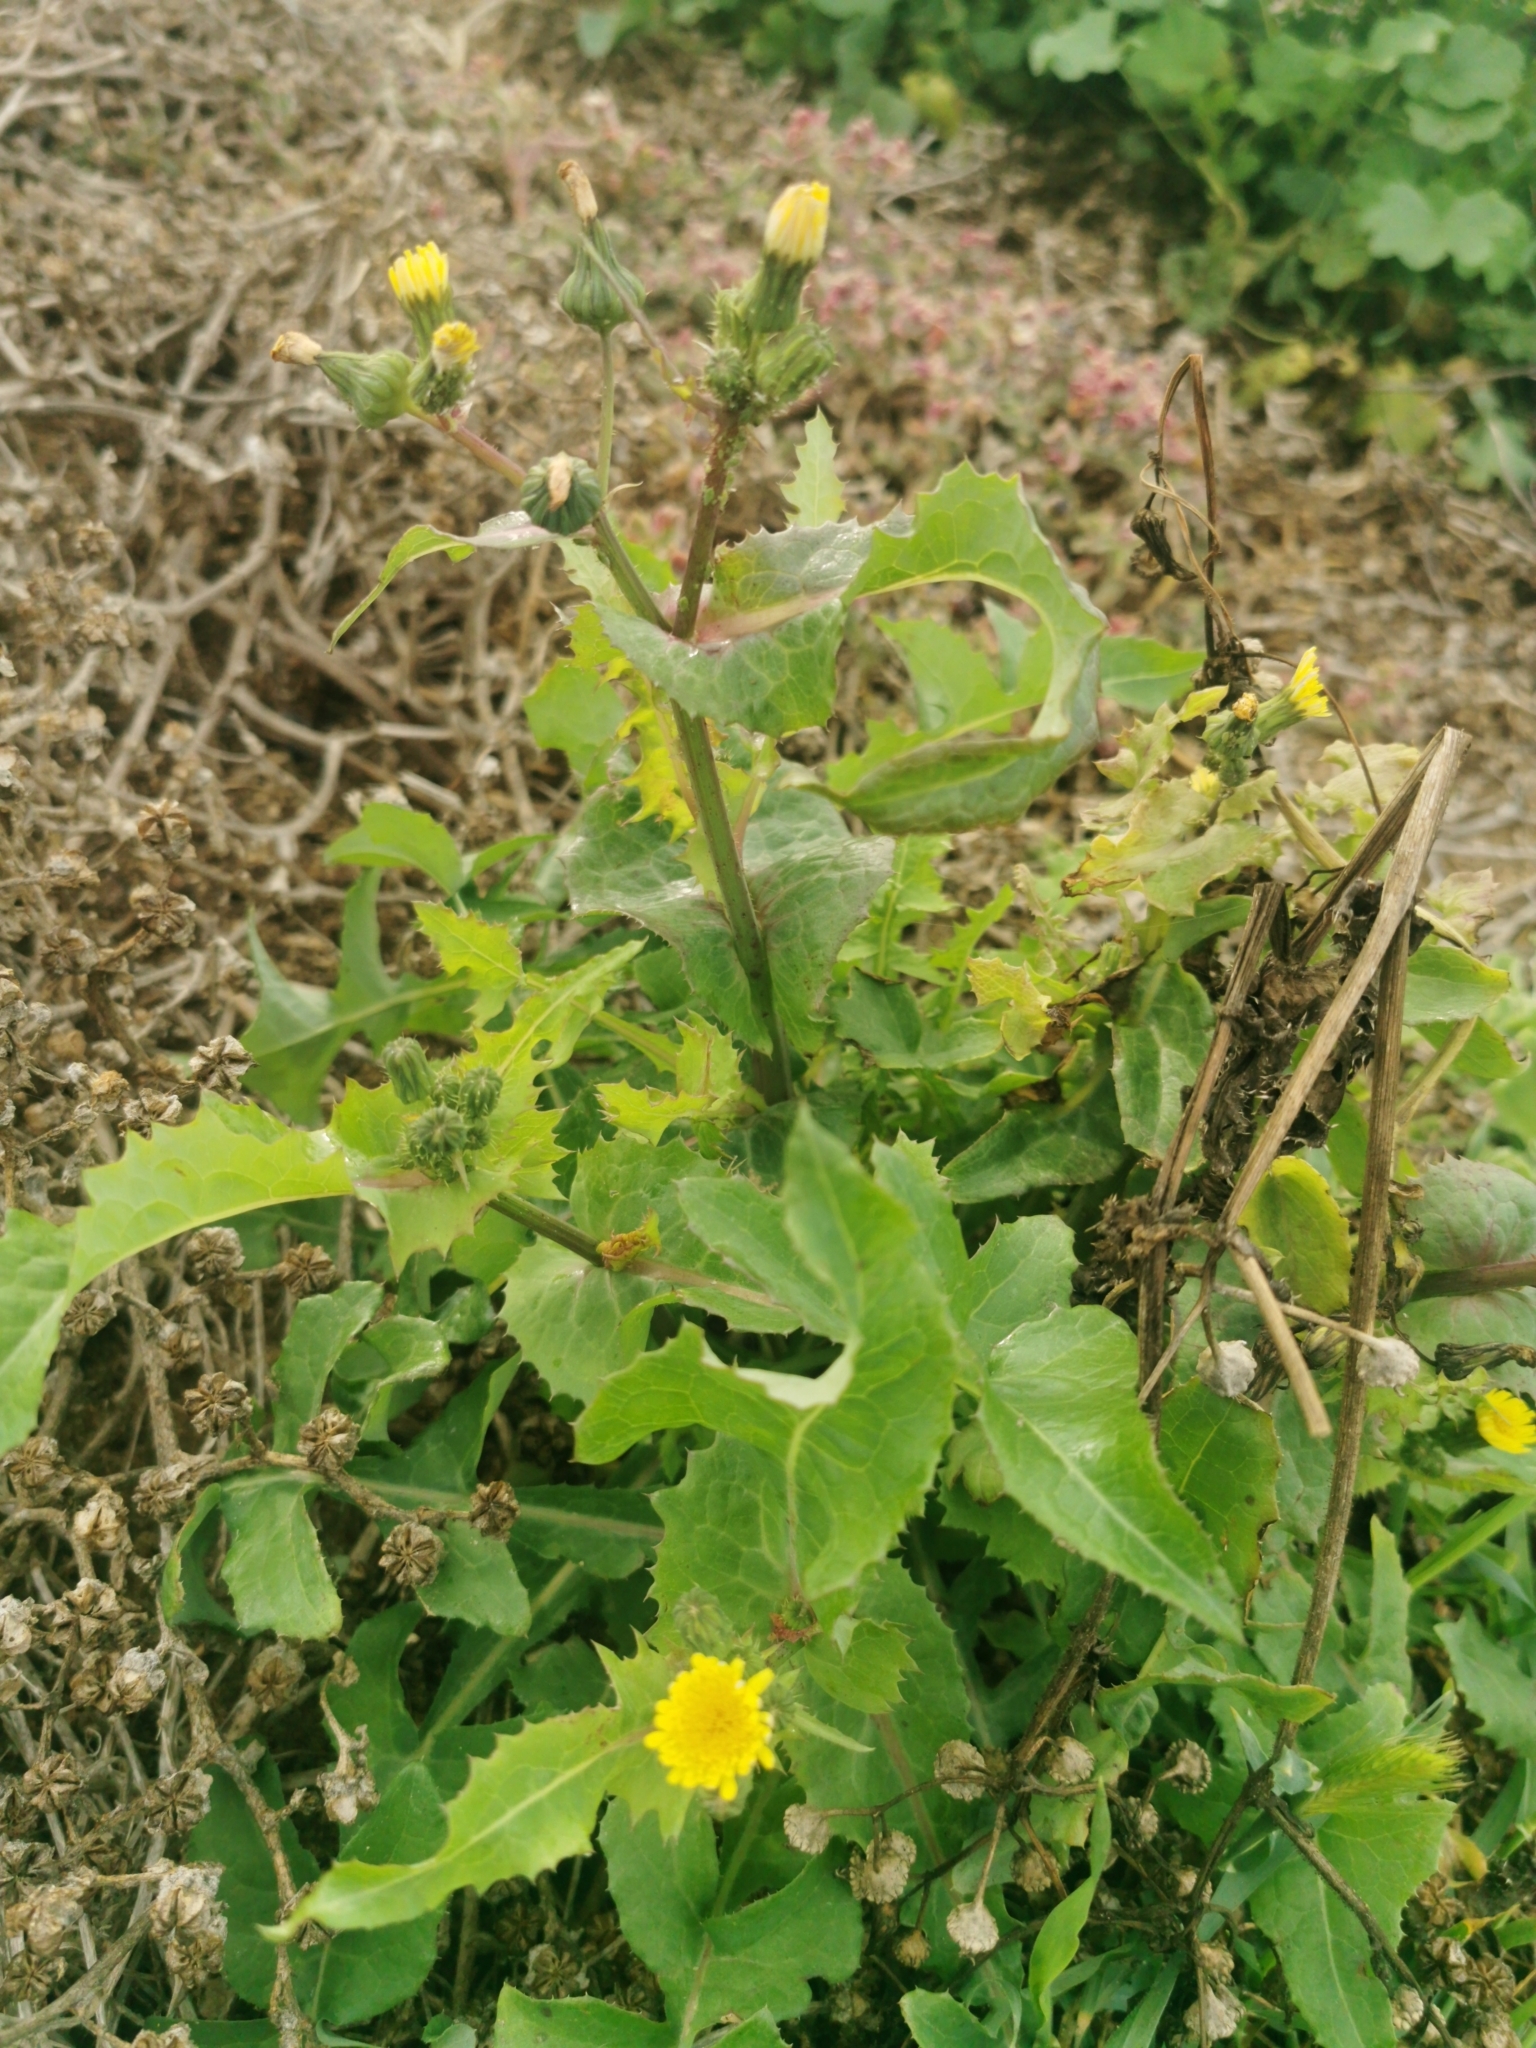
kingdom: Plantae
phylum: Tracheophyta
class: Magnoliopsida
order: Asterales
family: Asteraceae
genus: Sonchus
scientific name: Sonchus oleraceus
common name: Common sowthistle
